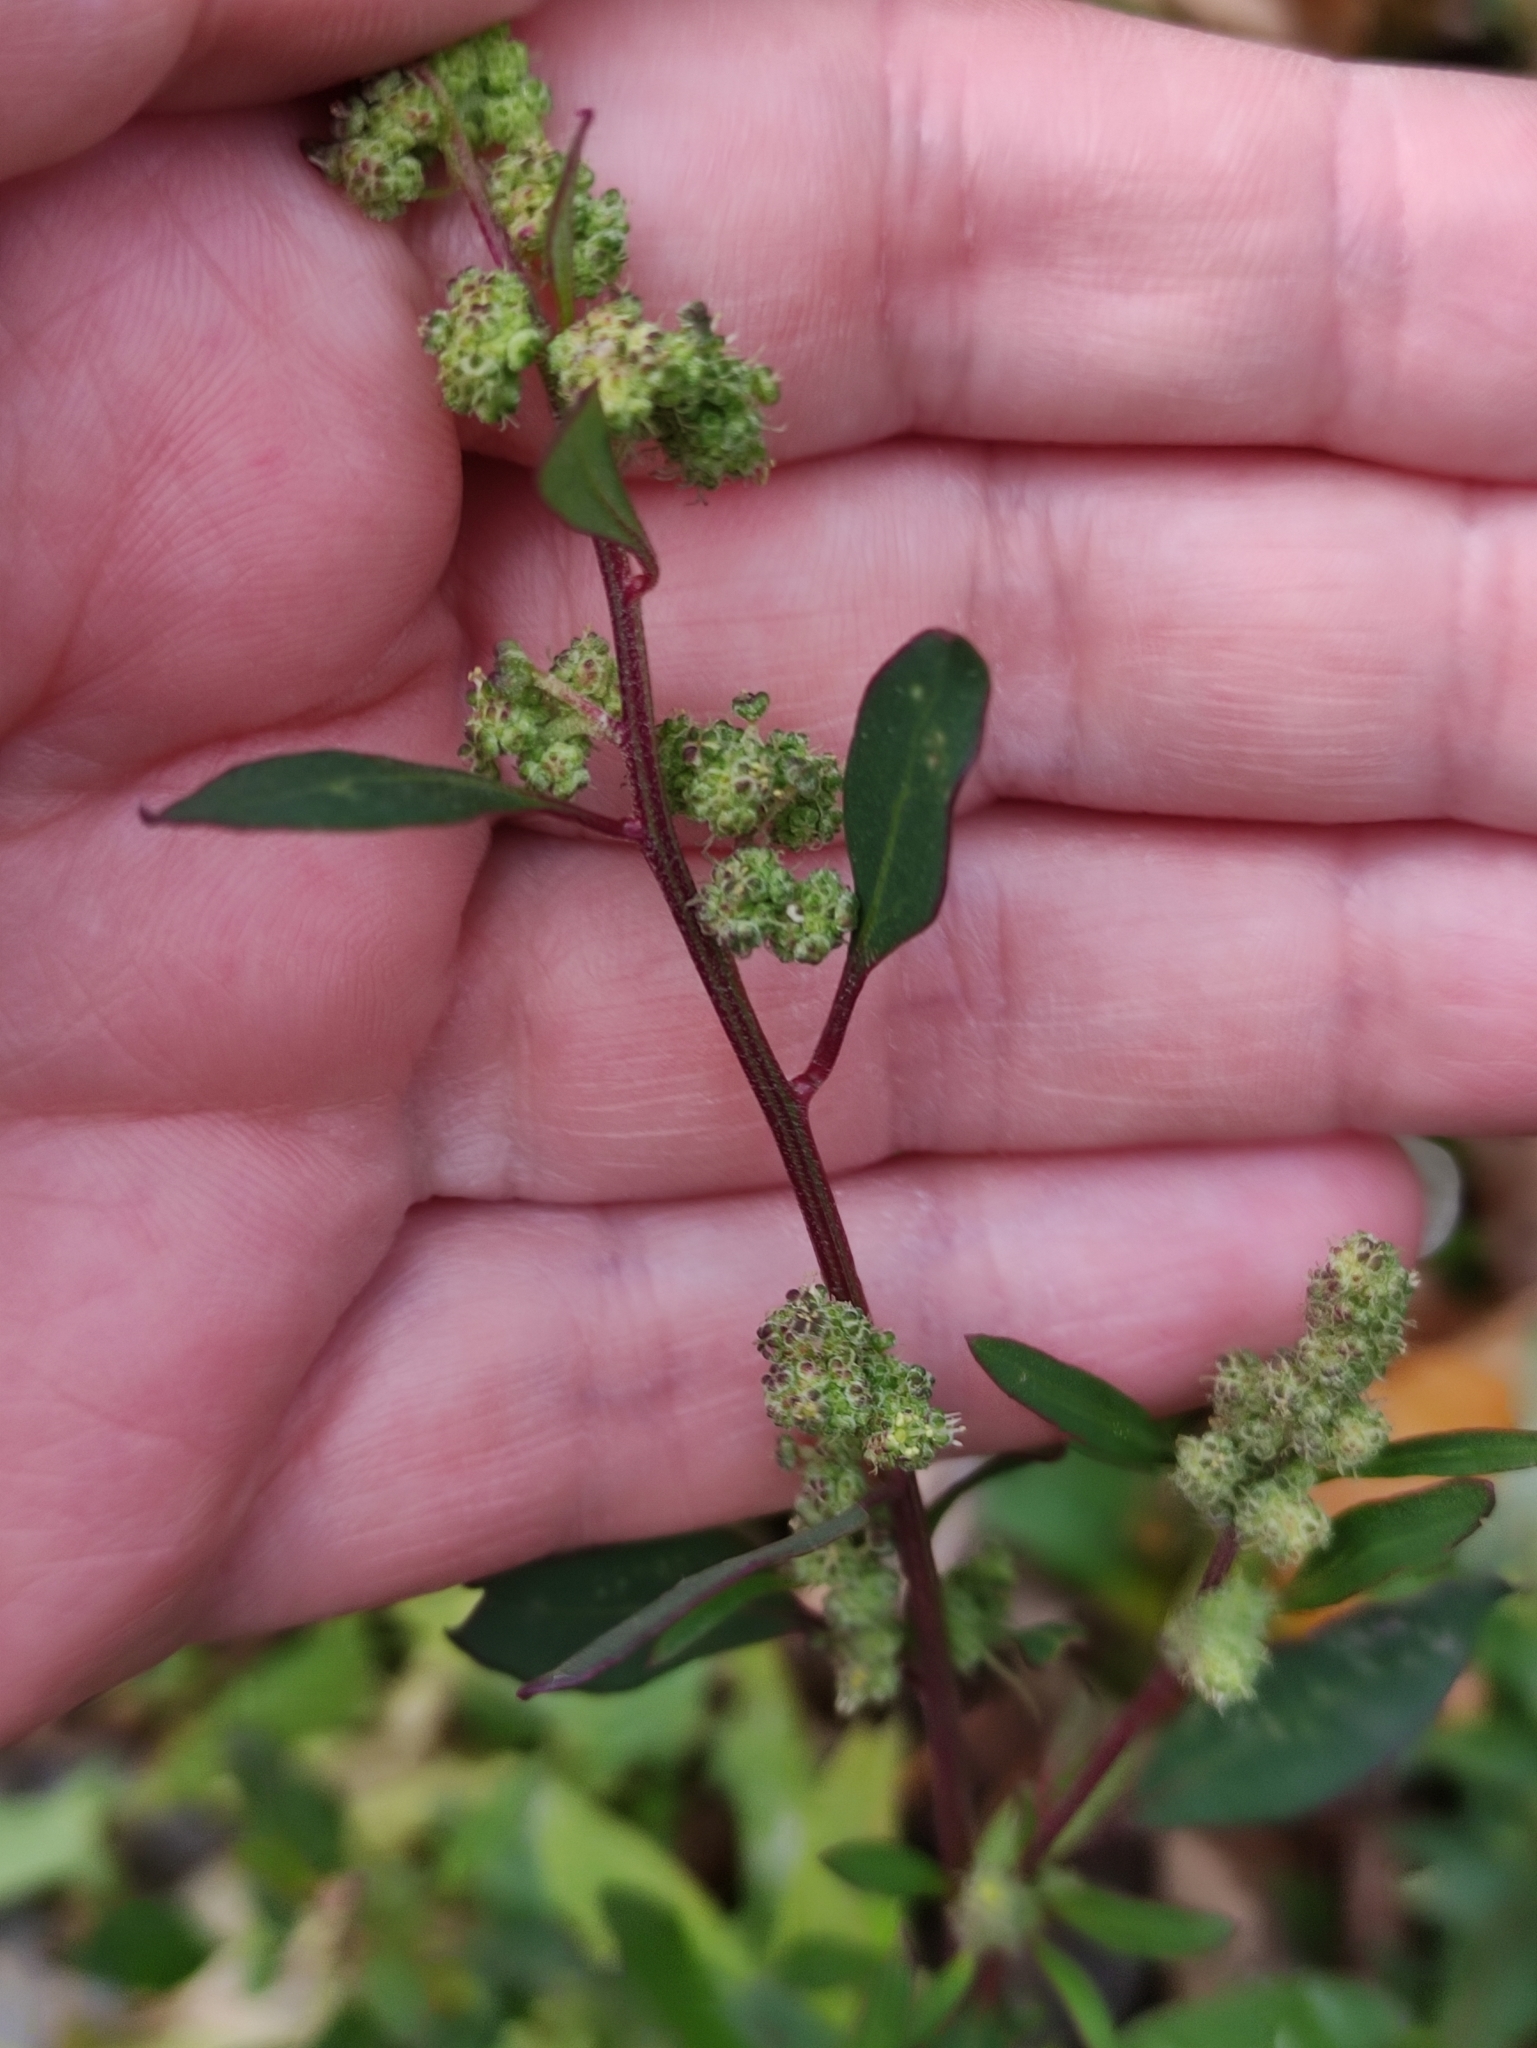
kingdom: Plantae
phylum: Tracheophyta
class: Magnoliopsida
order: Caryophyllales
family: Amaranthaceae
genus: Chenopodium
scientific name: Chenopodium betaceum
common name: Striped goosefoot
